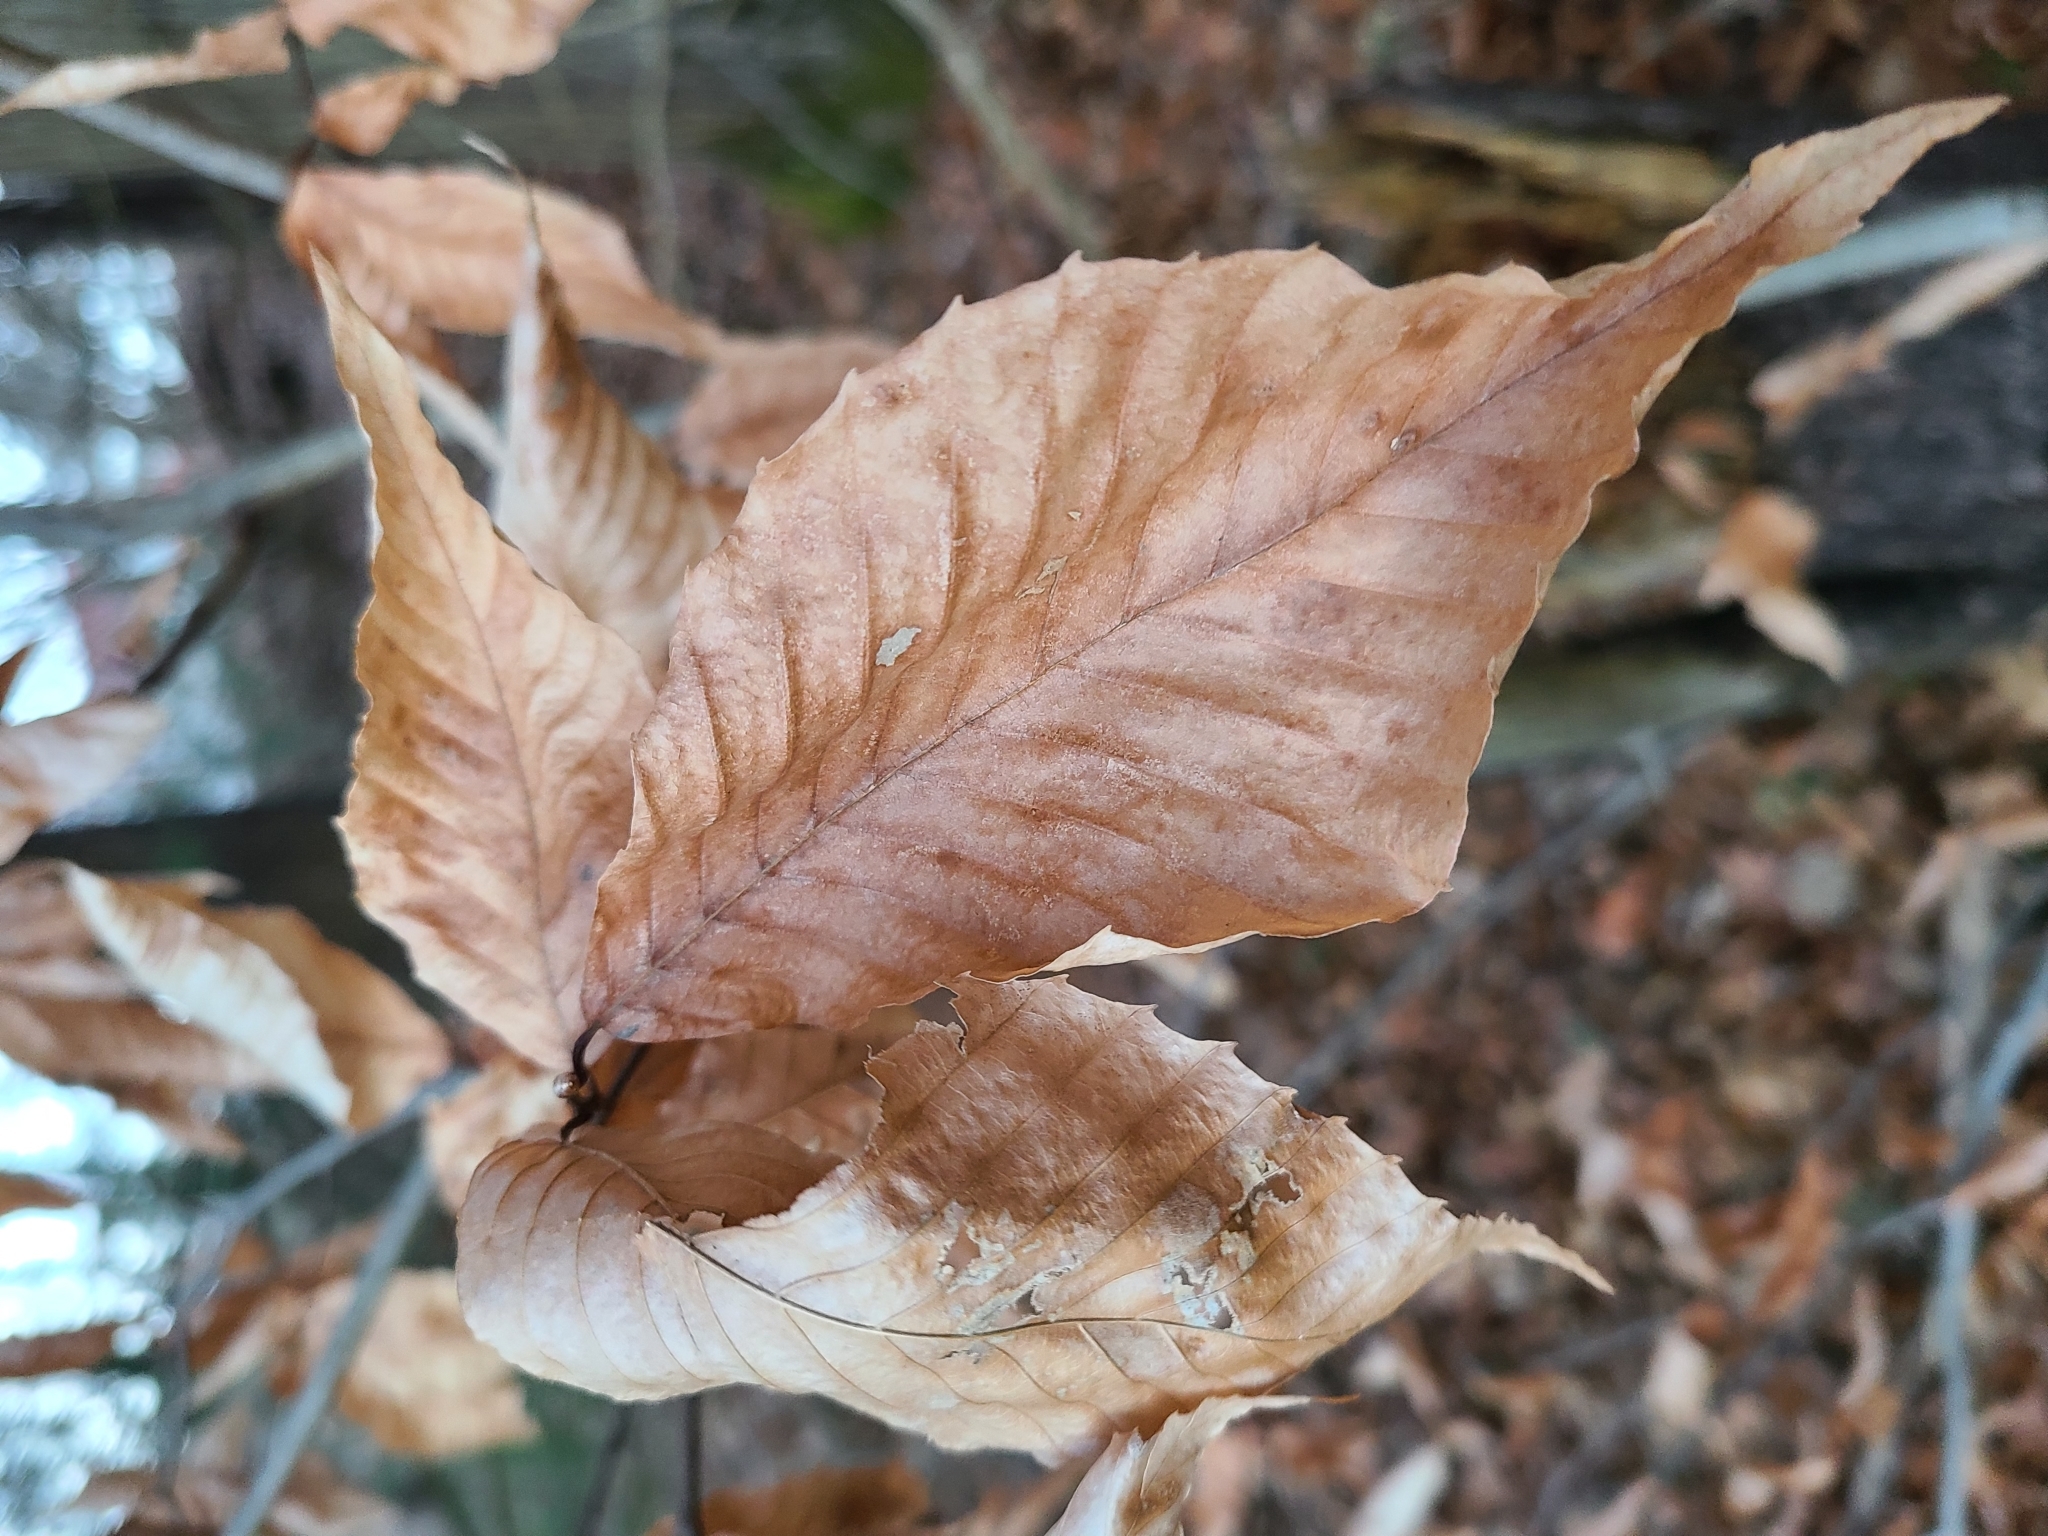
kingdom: Plantae
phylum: Tracheophyta
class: Magnoliopsida
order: Fagales
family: Fagaceae
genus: Fagus
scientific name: Fagus grandifolia
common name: American beech
